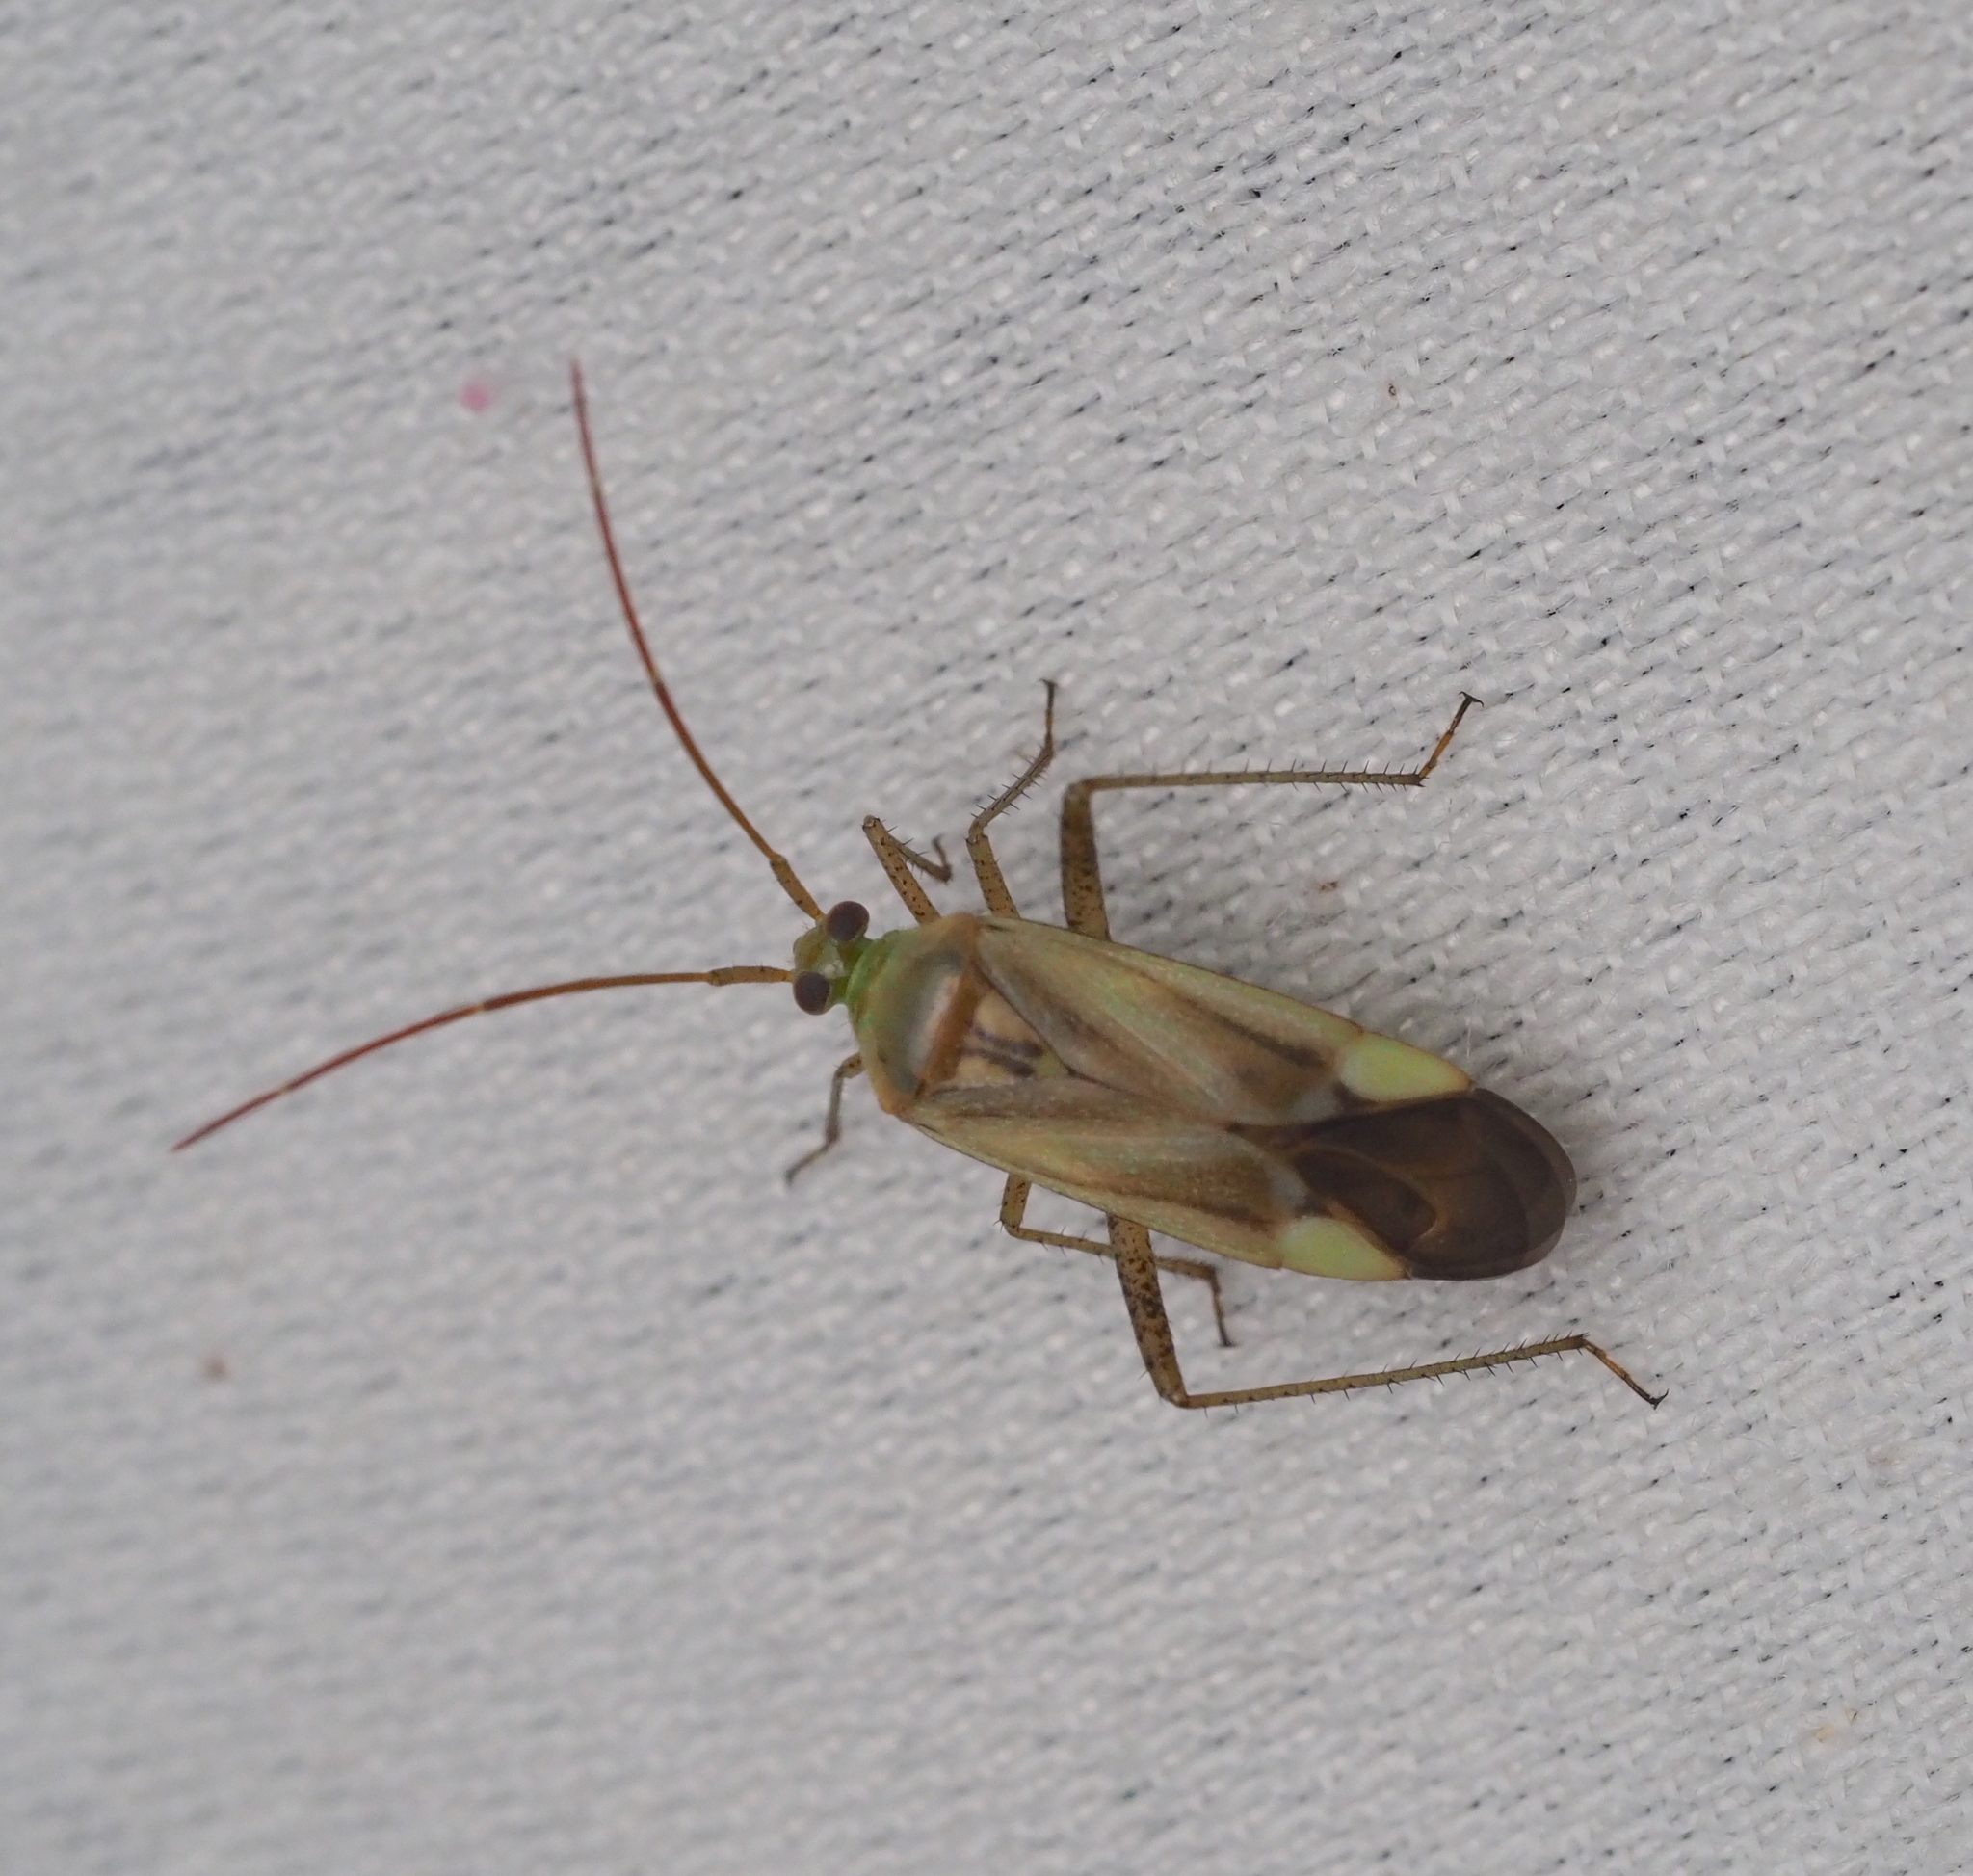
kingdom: Animalia
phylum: Arthropoda
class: Insecta
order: Hemiptera
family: Miridae
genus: Adelphocoris
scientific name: Adelphocoris lineolatus
